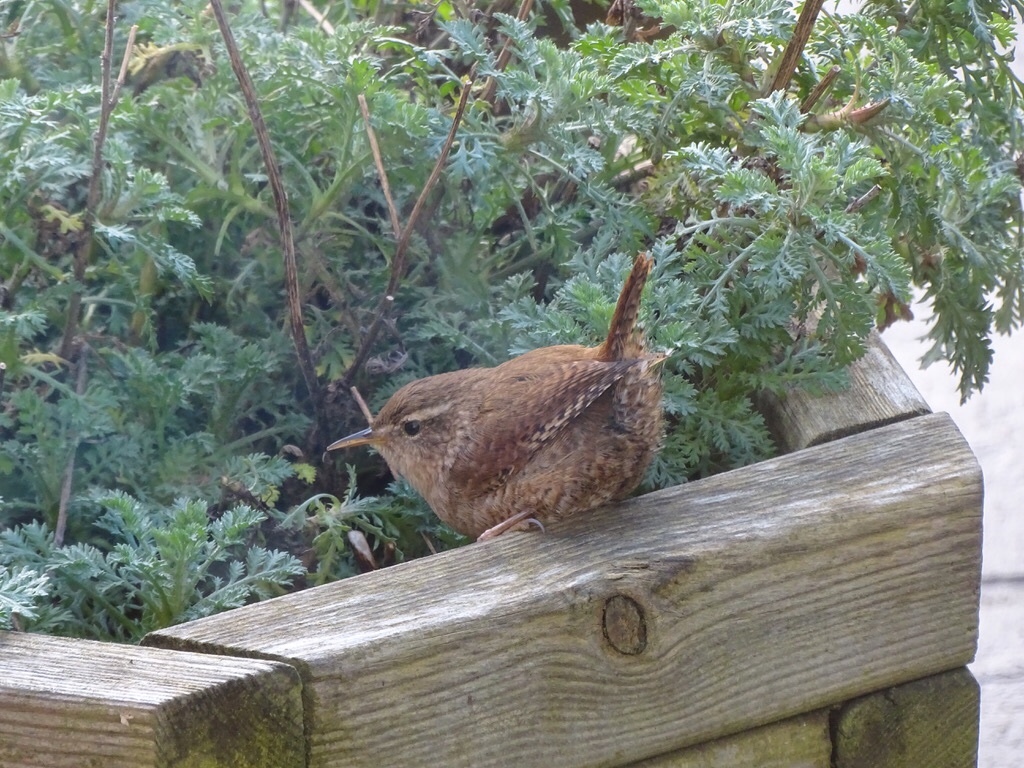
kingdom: Animalia
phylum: Chordata
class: Aves
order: Passeriformes
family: Troglodytidae
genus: Troglodytes
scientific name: Troglodytes troglodytes
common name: Eurasian wren
